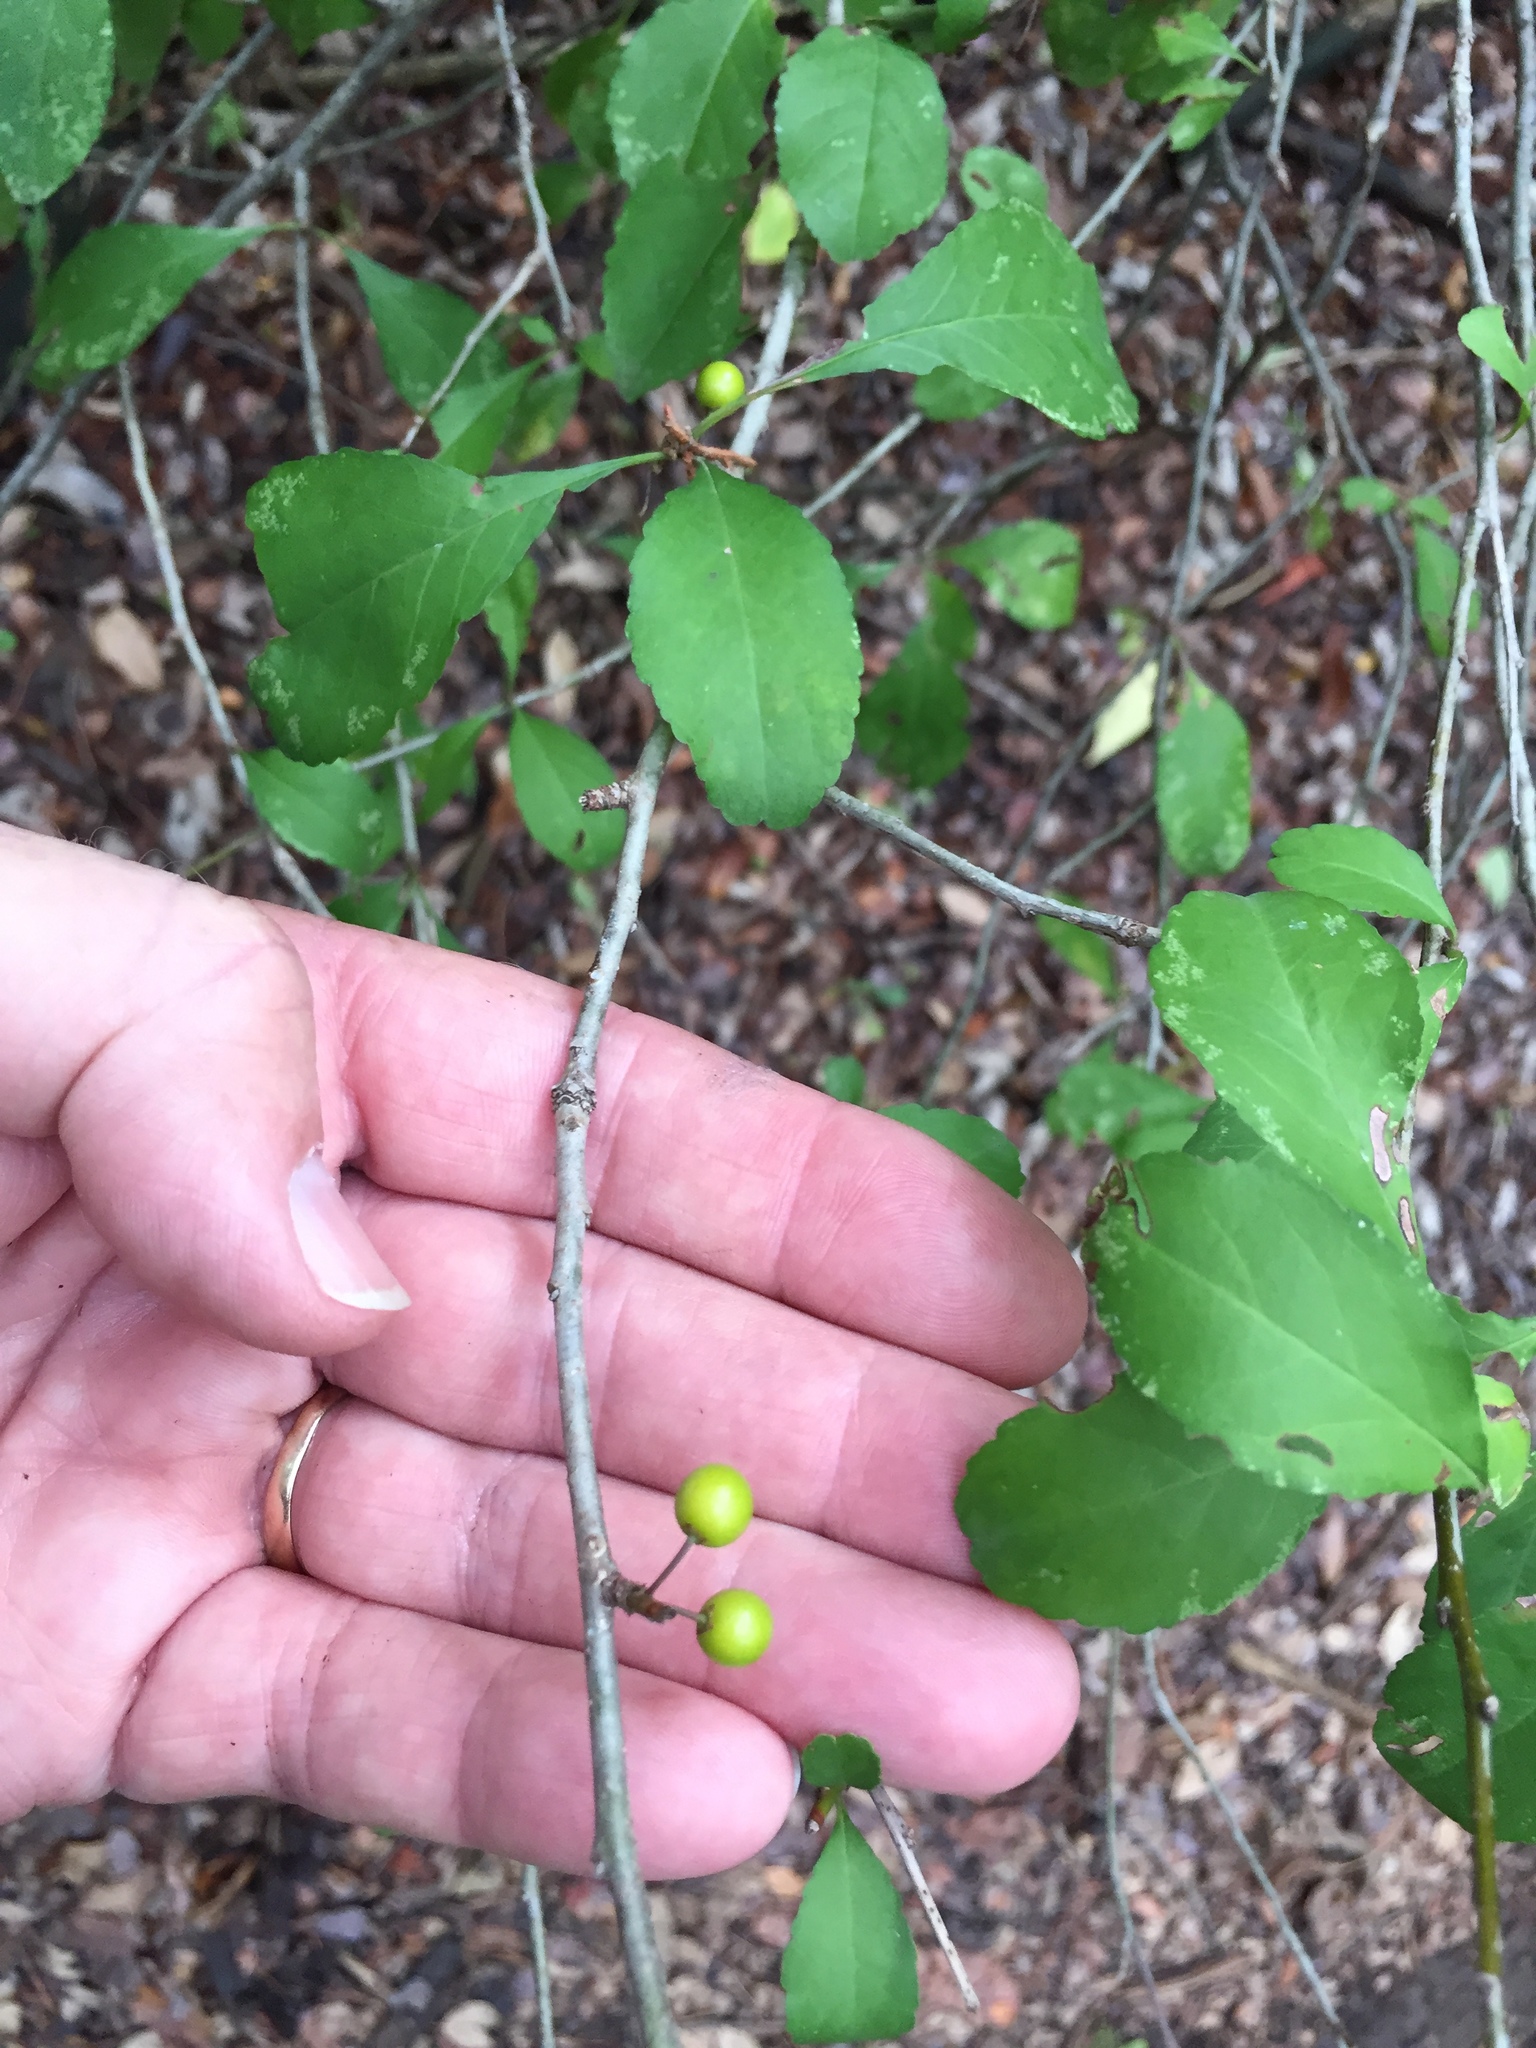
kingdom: Plantae
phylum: Tracheophyta
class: Magnoliopsida
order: Aquifoliales
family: Aquifoliaceae
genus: Ilex
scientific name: Ilex decidua
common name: Possum-haw
